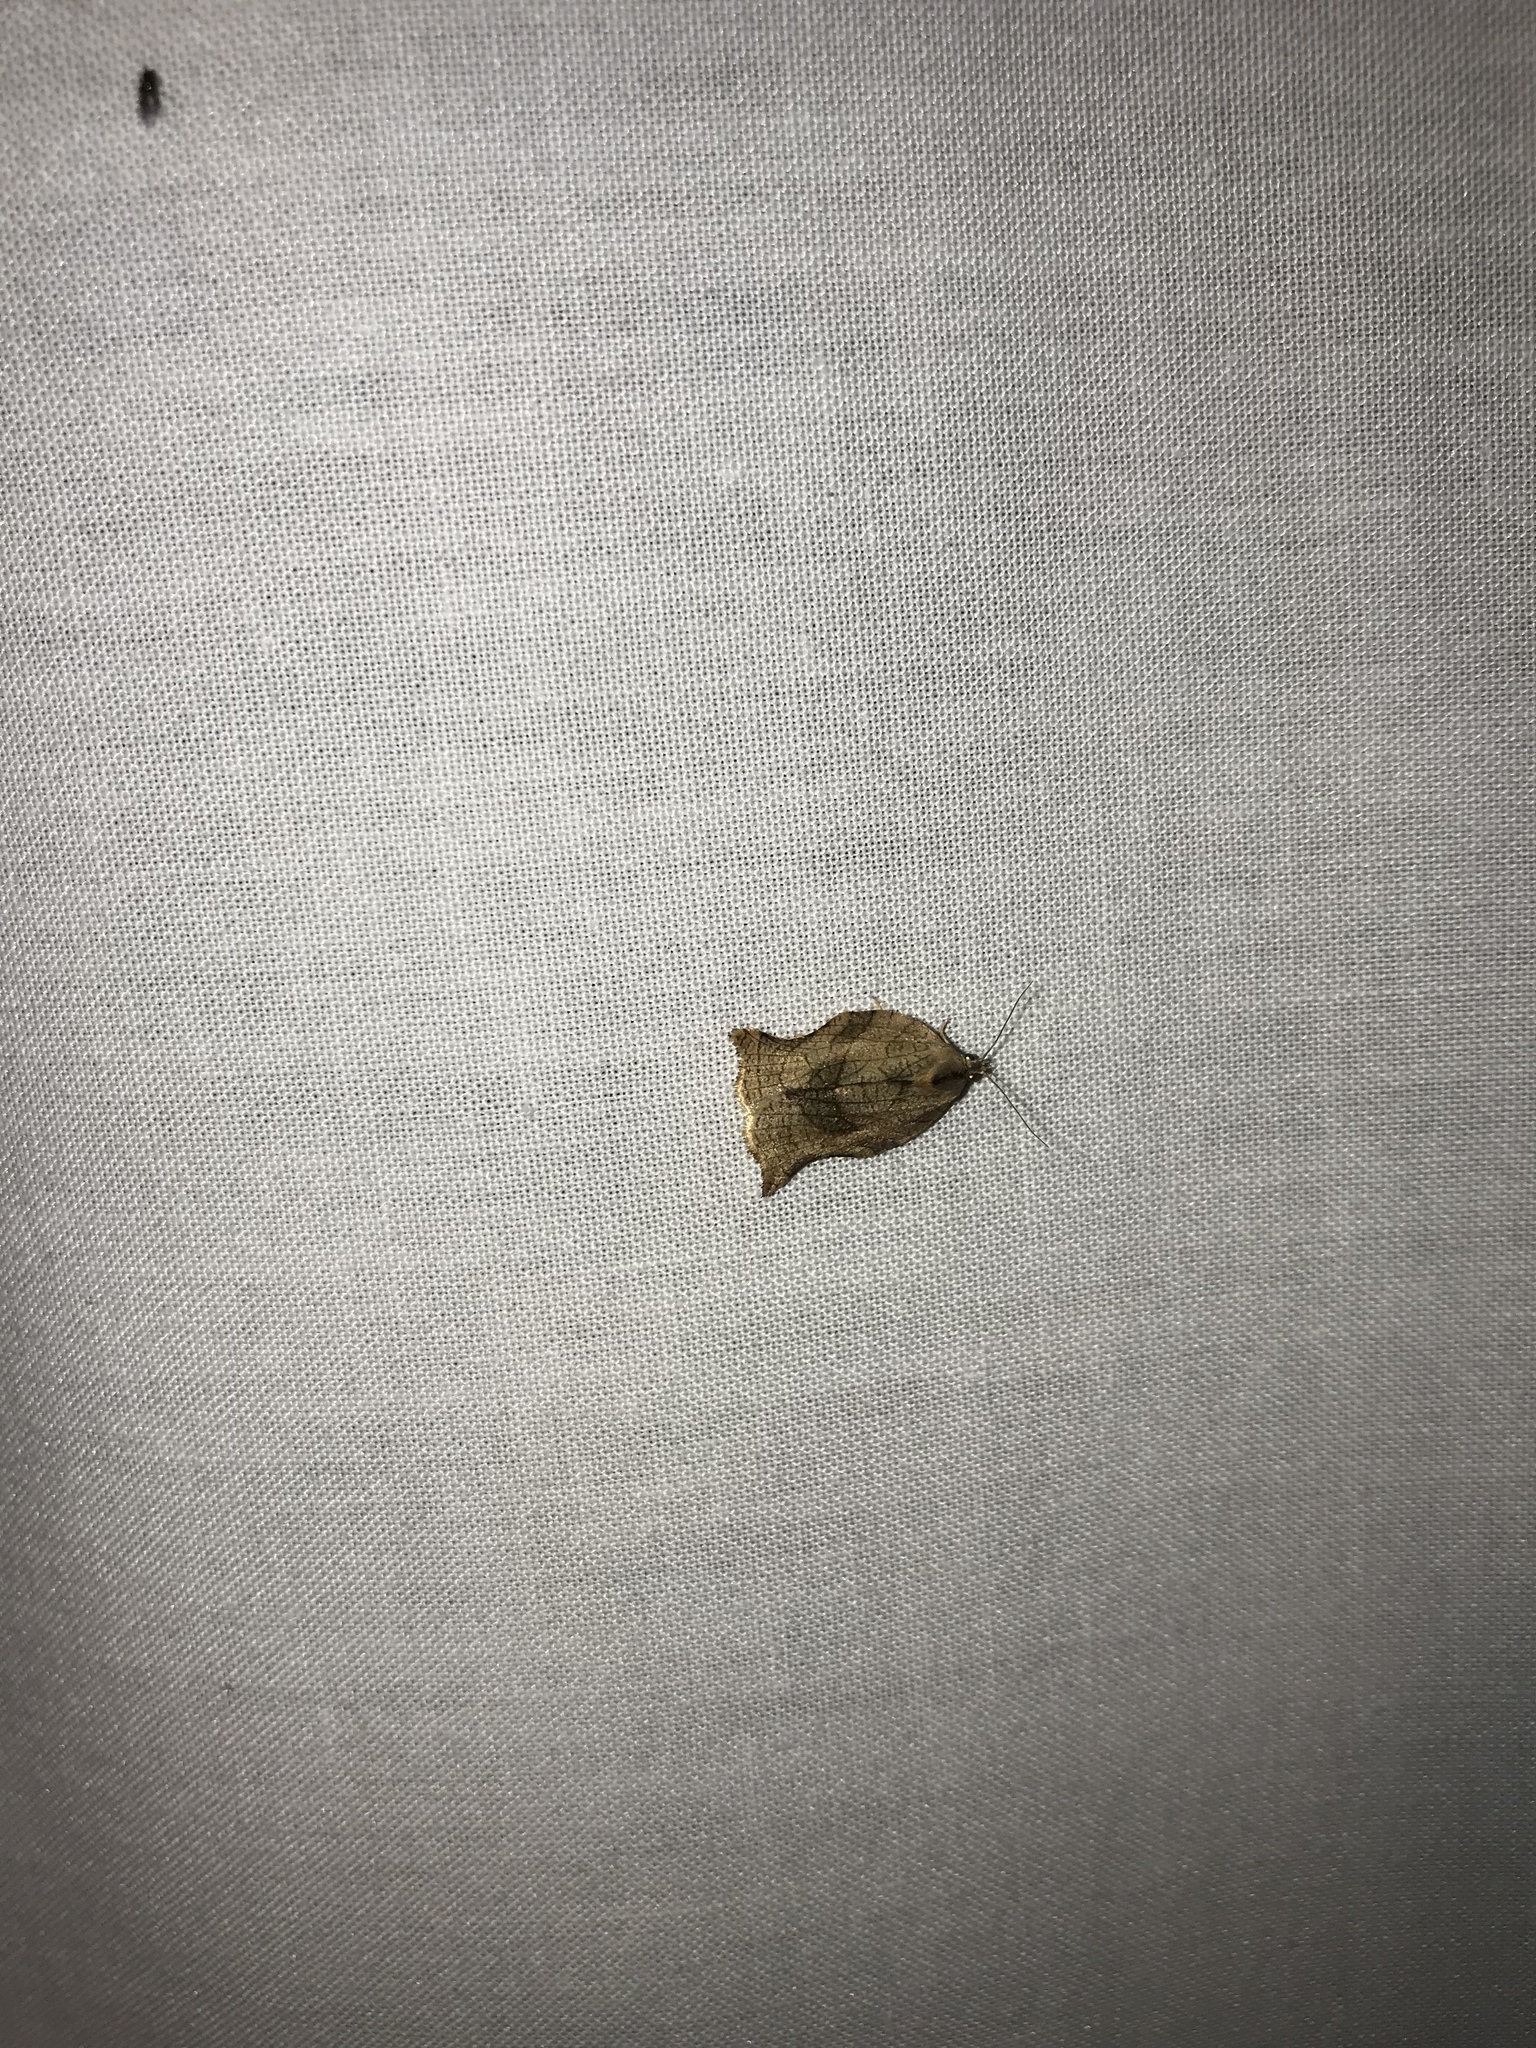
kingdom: Animalia
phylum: Arthropoda
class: Insecta
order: Lepidoptera
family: Tortricidae
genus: Archips
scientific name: Archips purpurana
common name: Omnivorous leafroller
